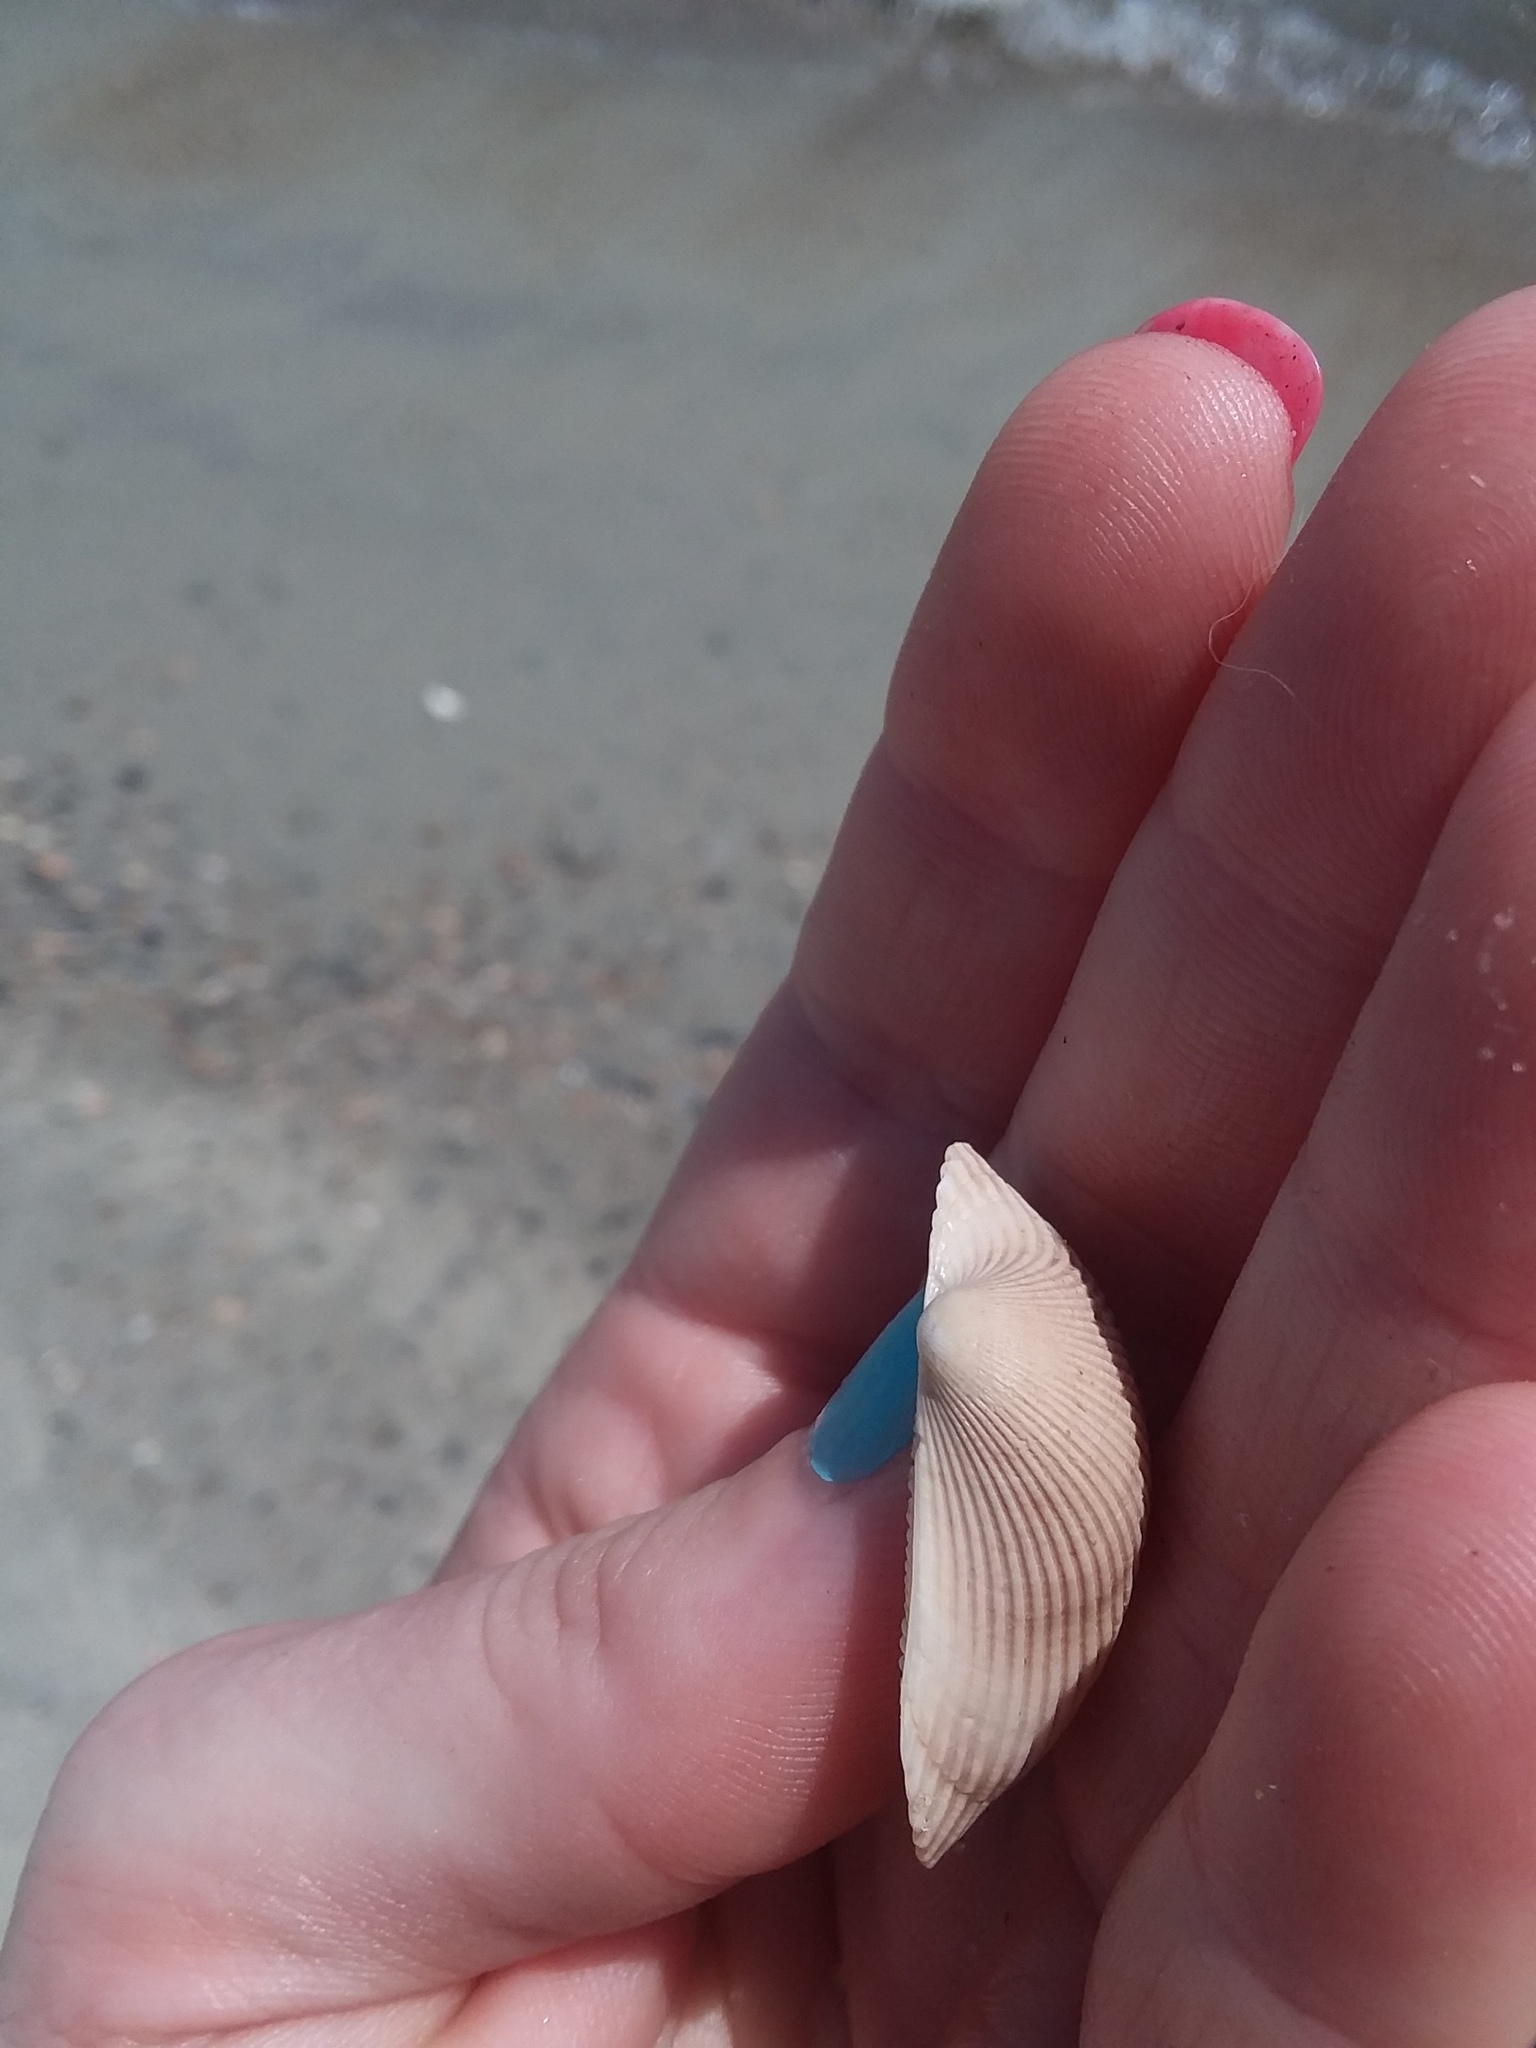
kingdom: Animalia
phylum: Mollusca
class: Bivalvia
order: Arcida
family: Arcidae
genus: Lunarca
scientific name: Lunarca ovalis
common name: Blood ark
